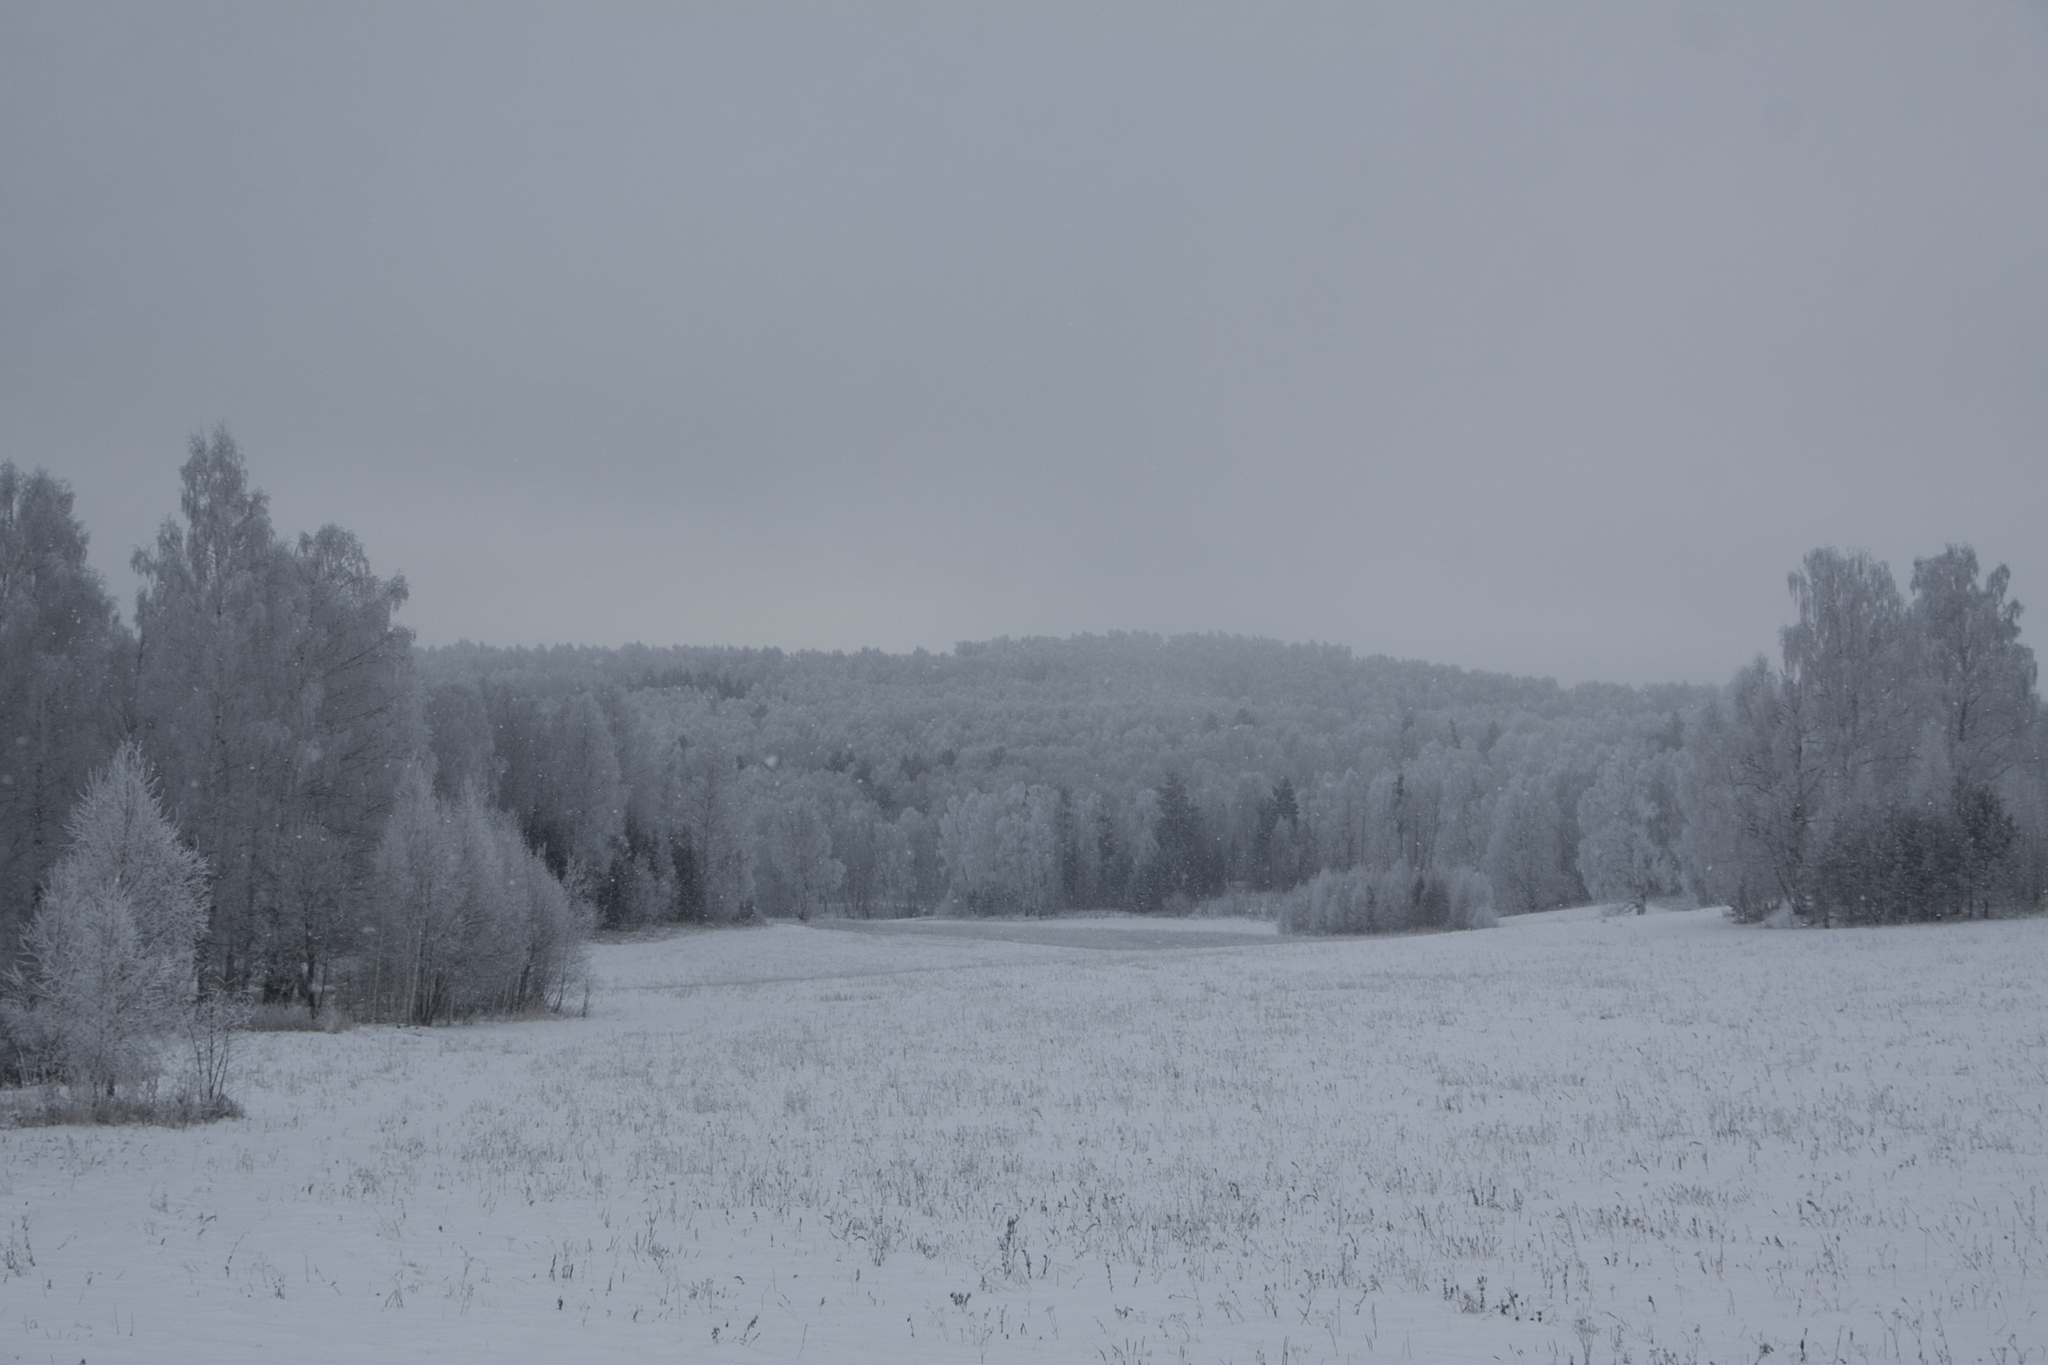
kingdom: Plantae
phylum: Tracheophyta
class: Magnoliopsida
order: Fagales
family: Betulaceae
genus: Betula
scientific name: Betula pendula
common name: Silver birch
